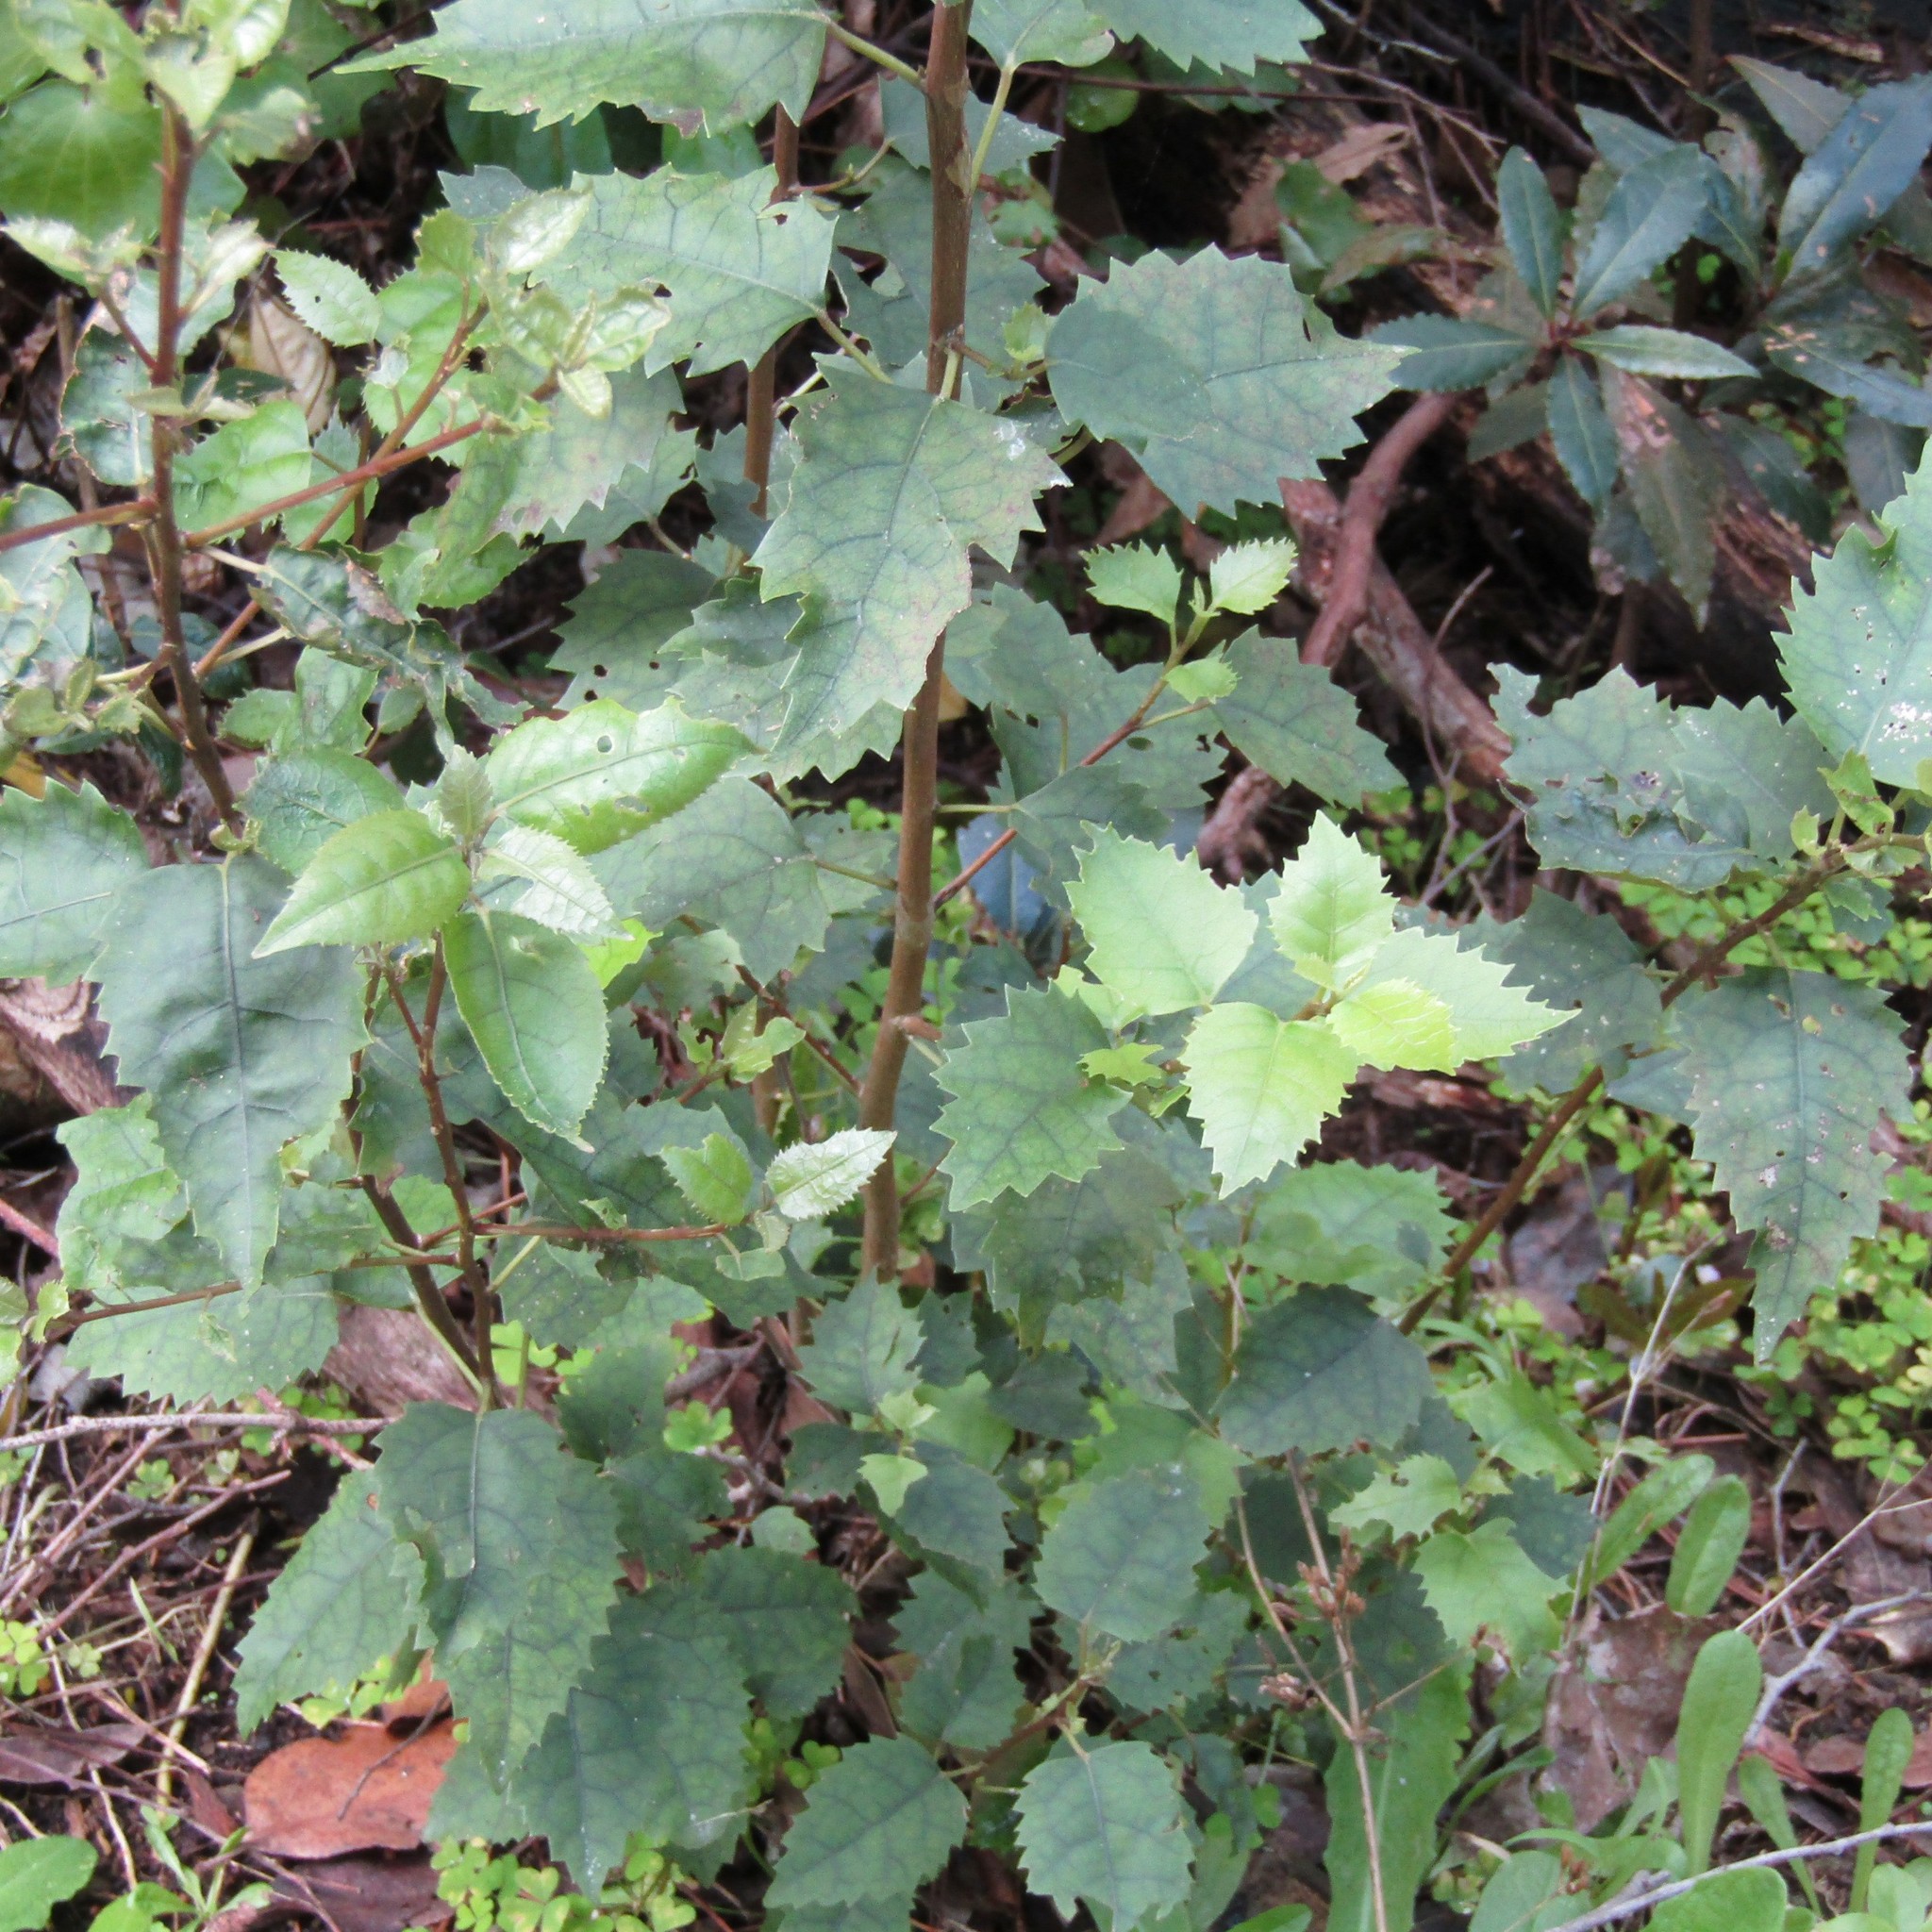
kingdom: Plantae
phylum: Tracheophyta
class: Magnoliopsida
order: Malvales
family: Malvaceae
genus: Hoheria
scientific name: Hoheria populnea
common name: Lacebark
